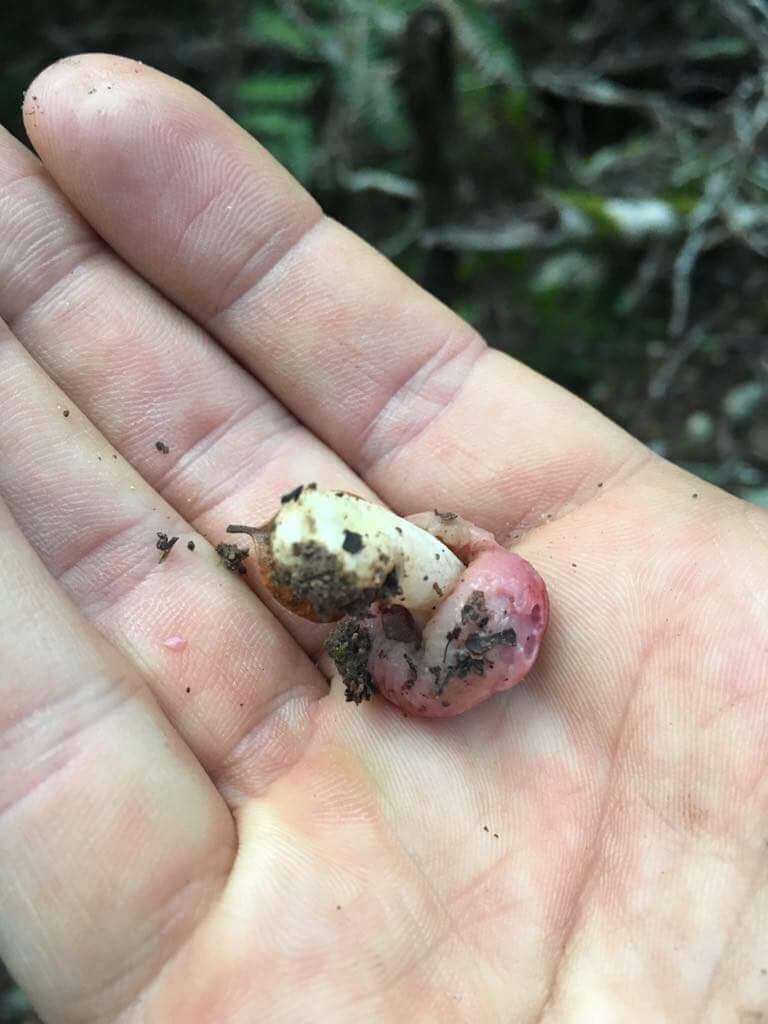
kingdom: Fungi
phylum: Basidiomycota
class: Agaricomycetes
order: Russulales
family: Russulaceae
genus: Russula
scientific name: Russula kermesina
